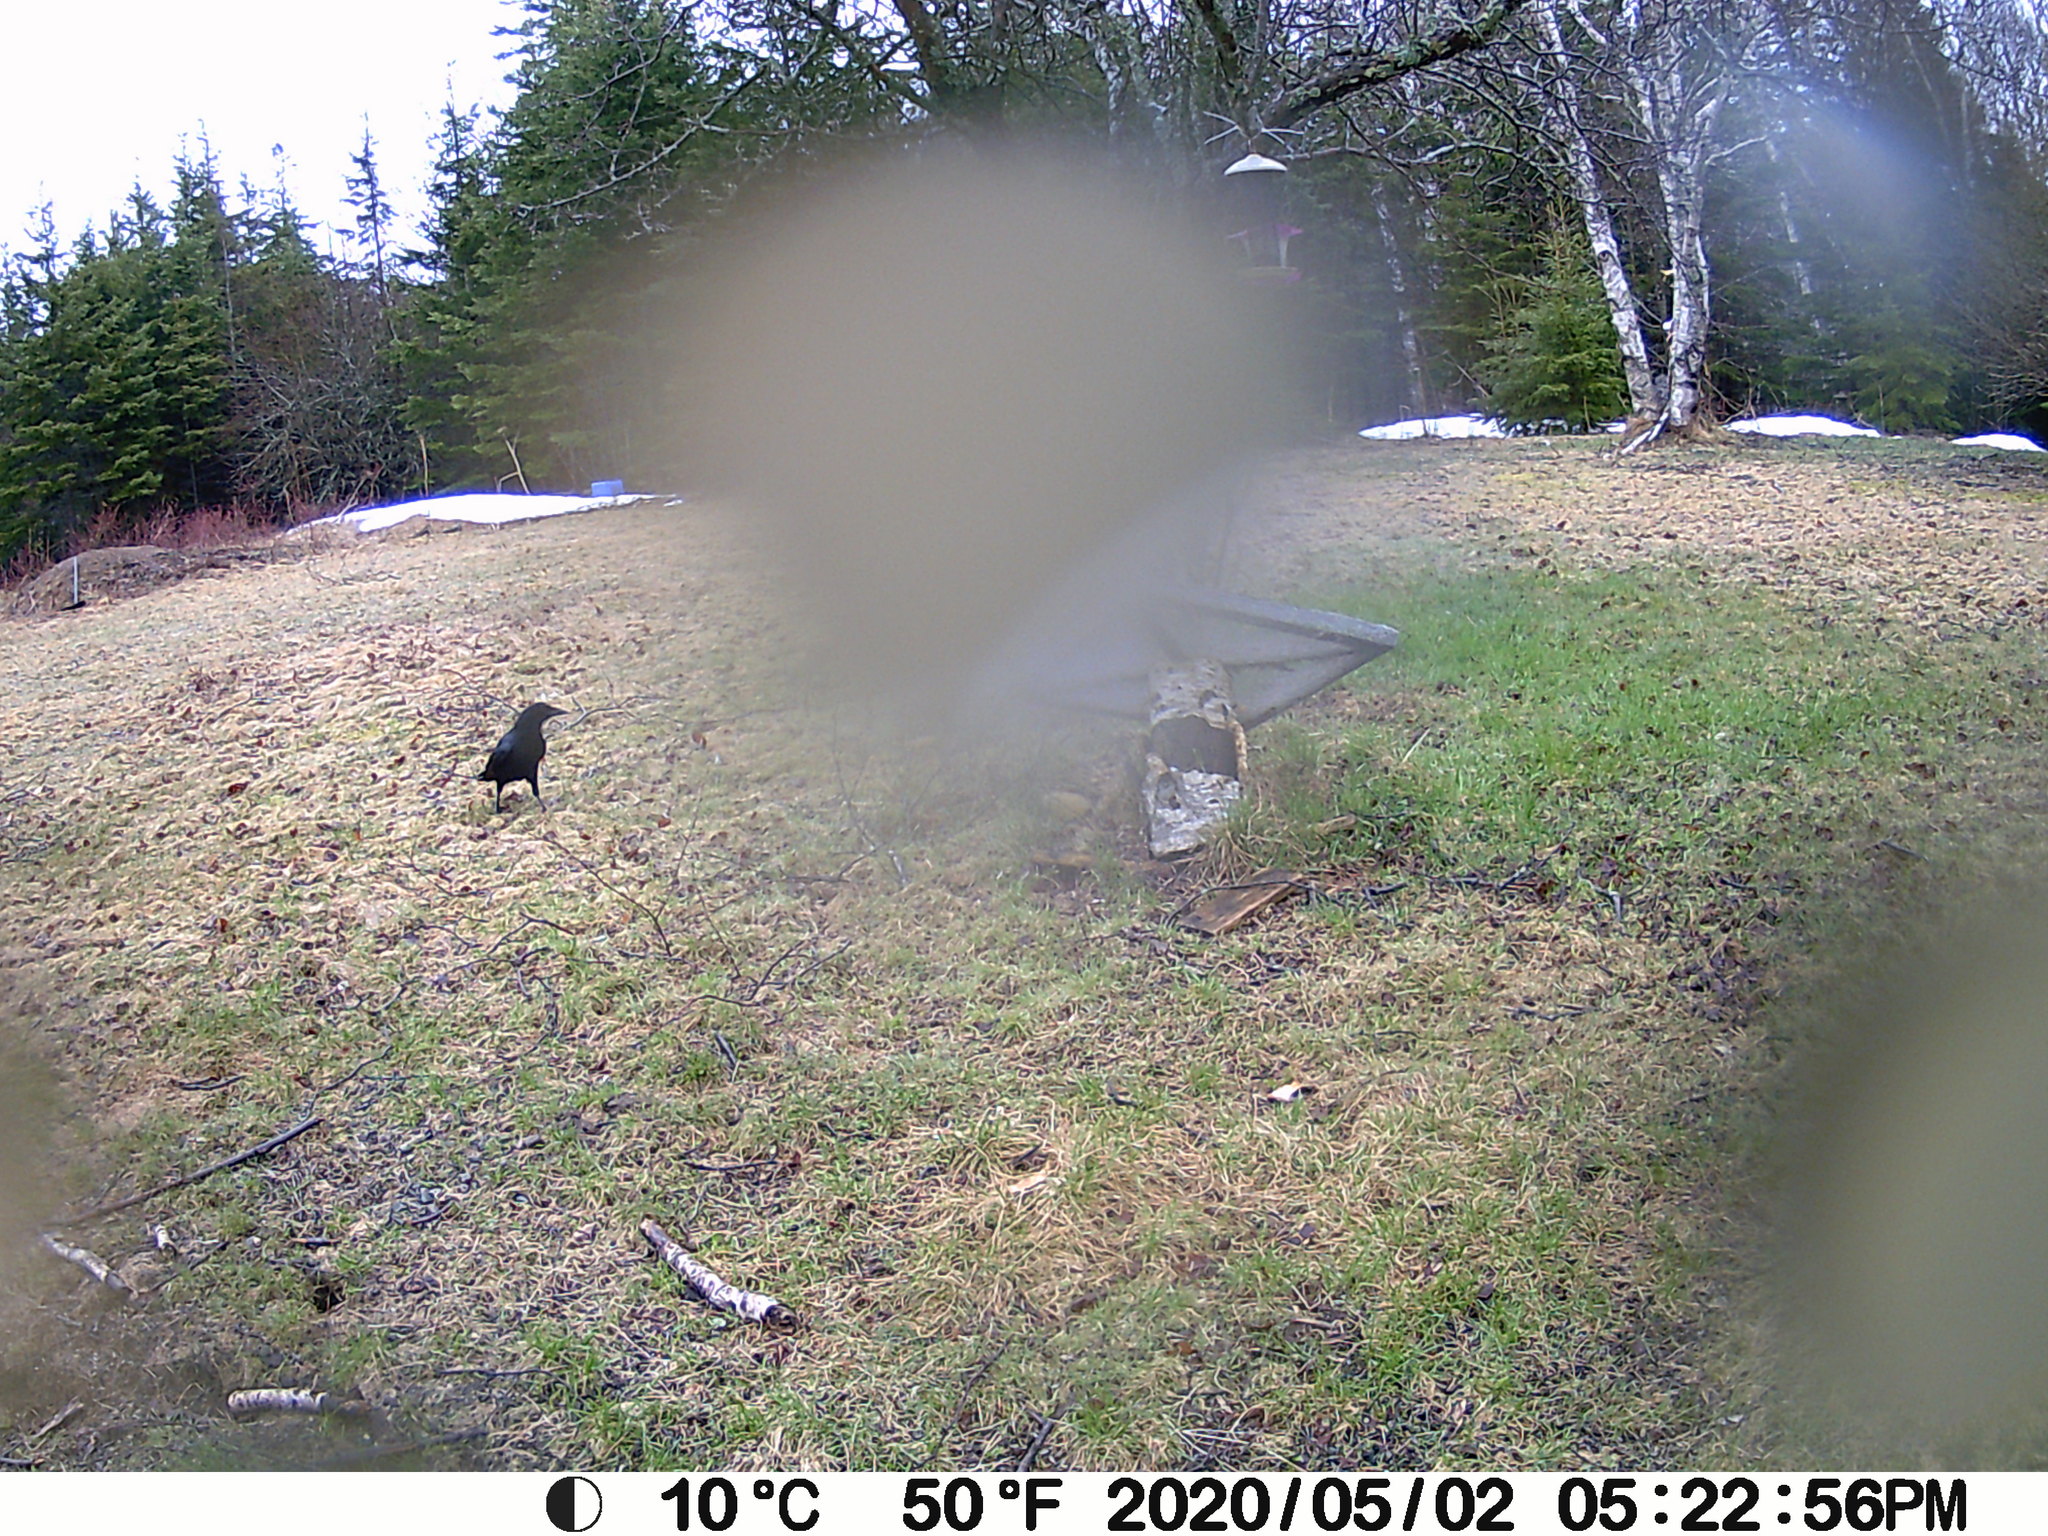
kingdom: Animalia
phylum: Chordata
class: Aves
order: Passeriformes
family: Corvidae
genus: Corvus
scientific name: Corvus brachyrhynchos
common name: American crow
